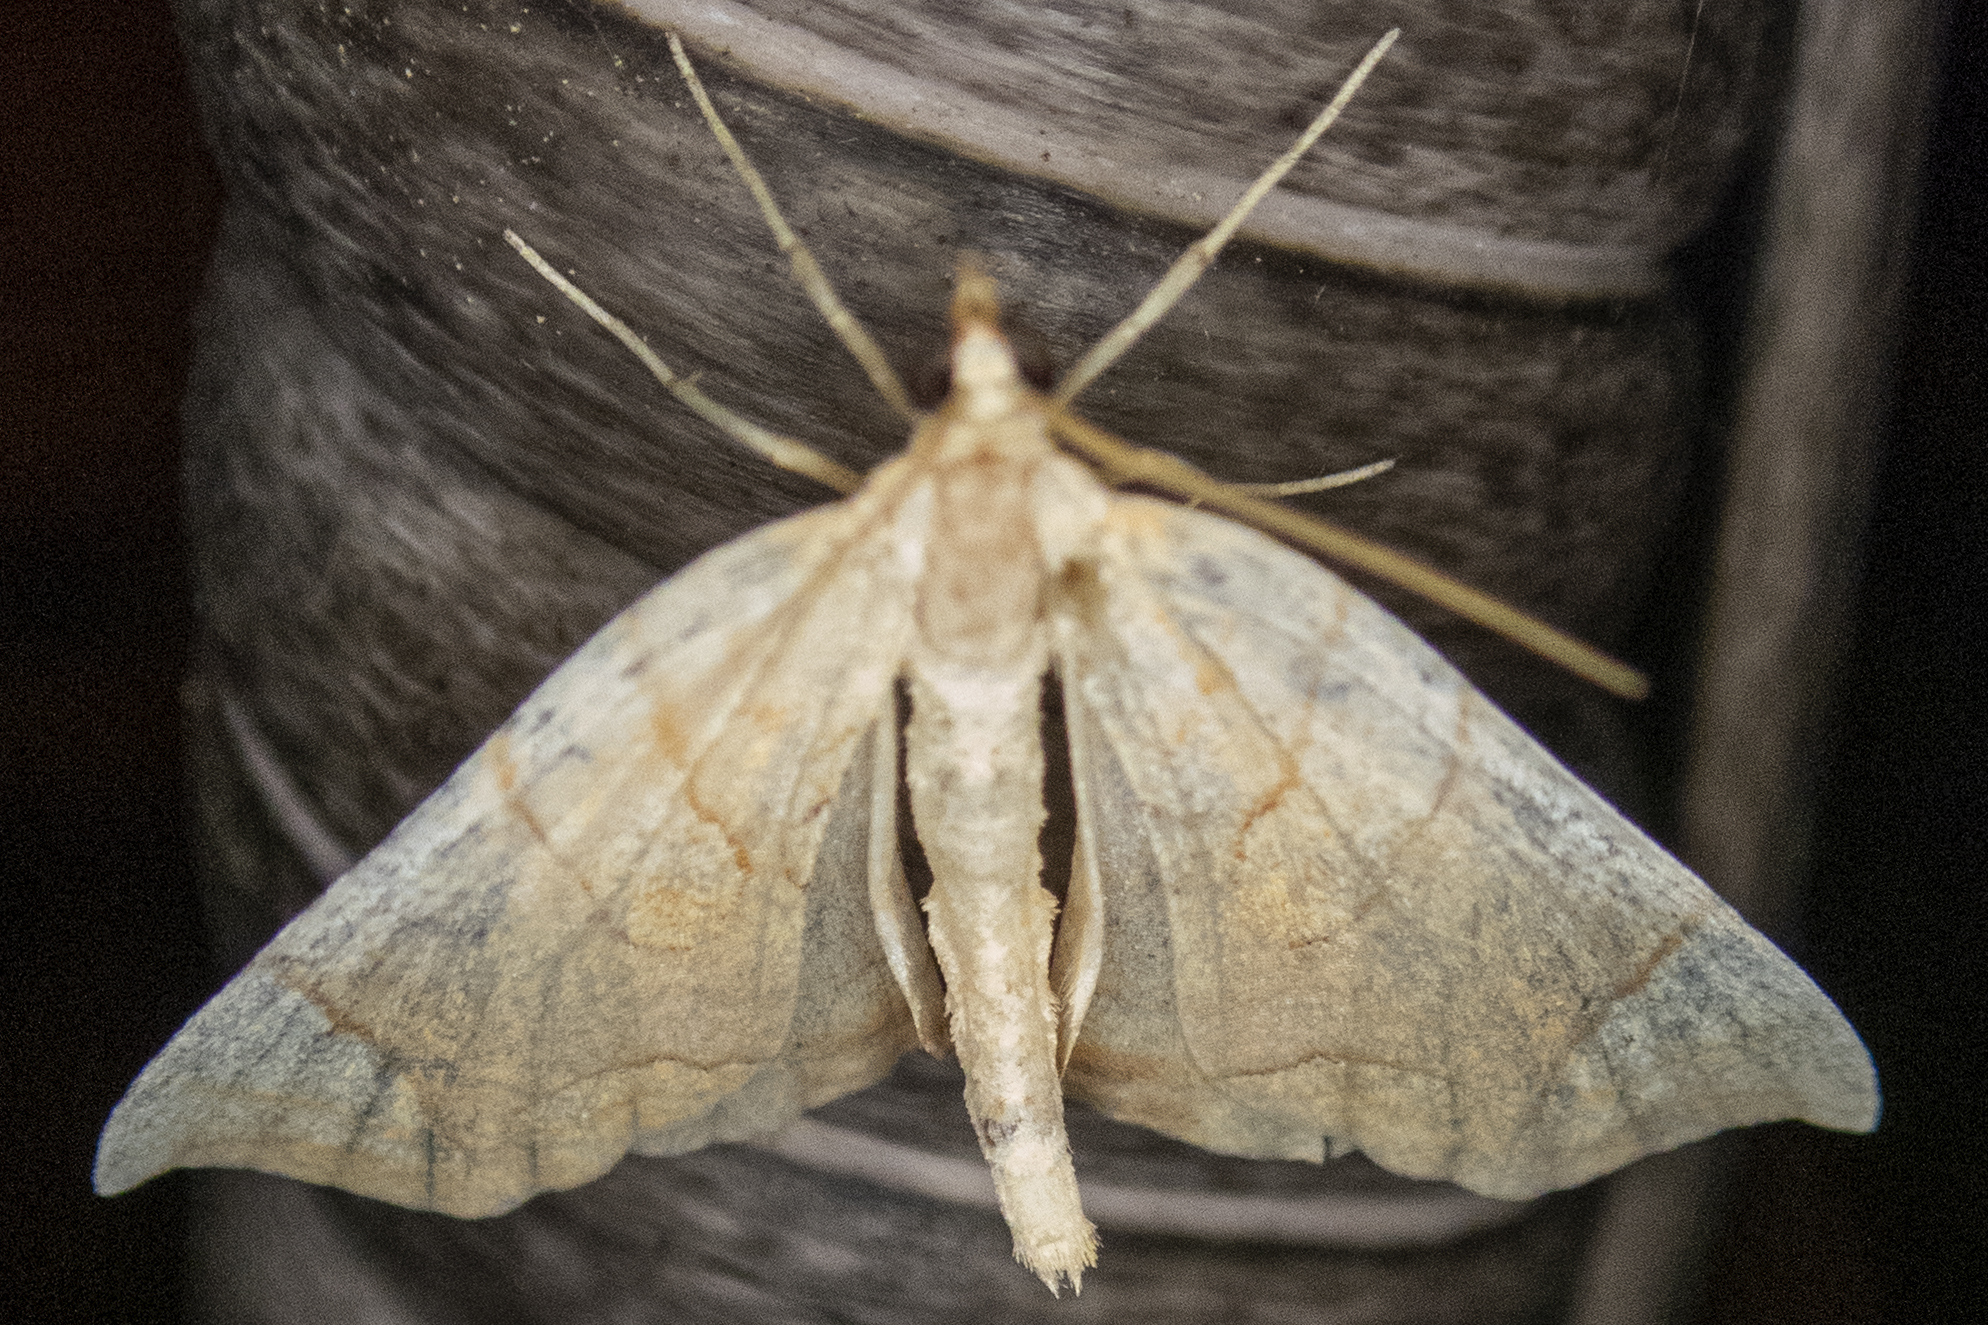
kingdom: Animalia
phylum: Arthropoda
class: Insecta
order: Lepidoptera
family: Geometridae
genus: Eulithis
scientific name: Eulithis diversilineata
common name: Grapevine looper
